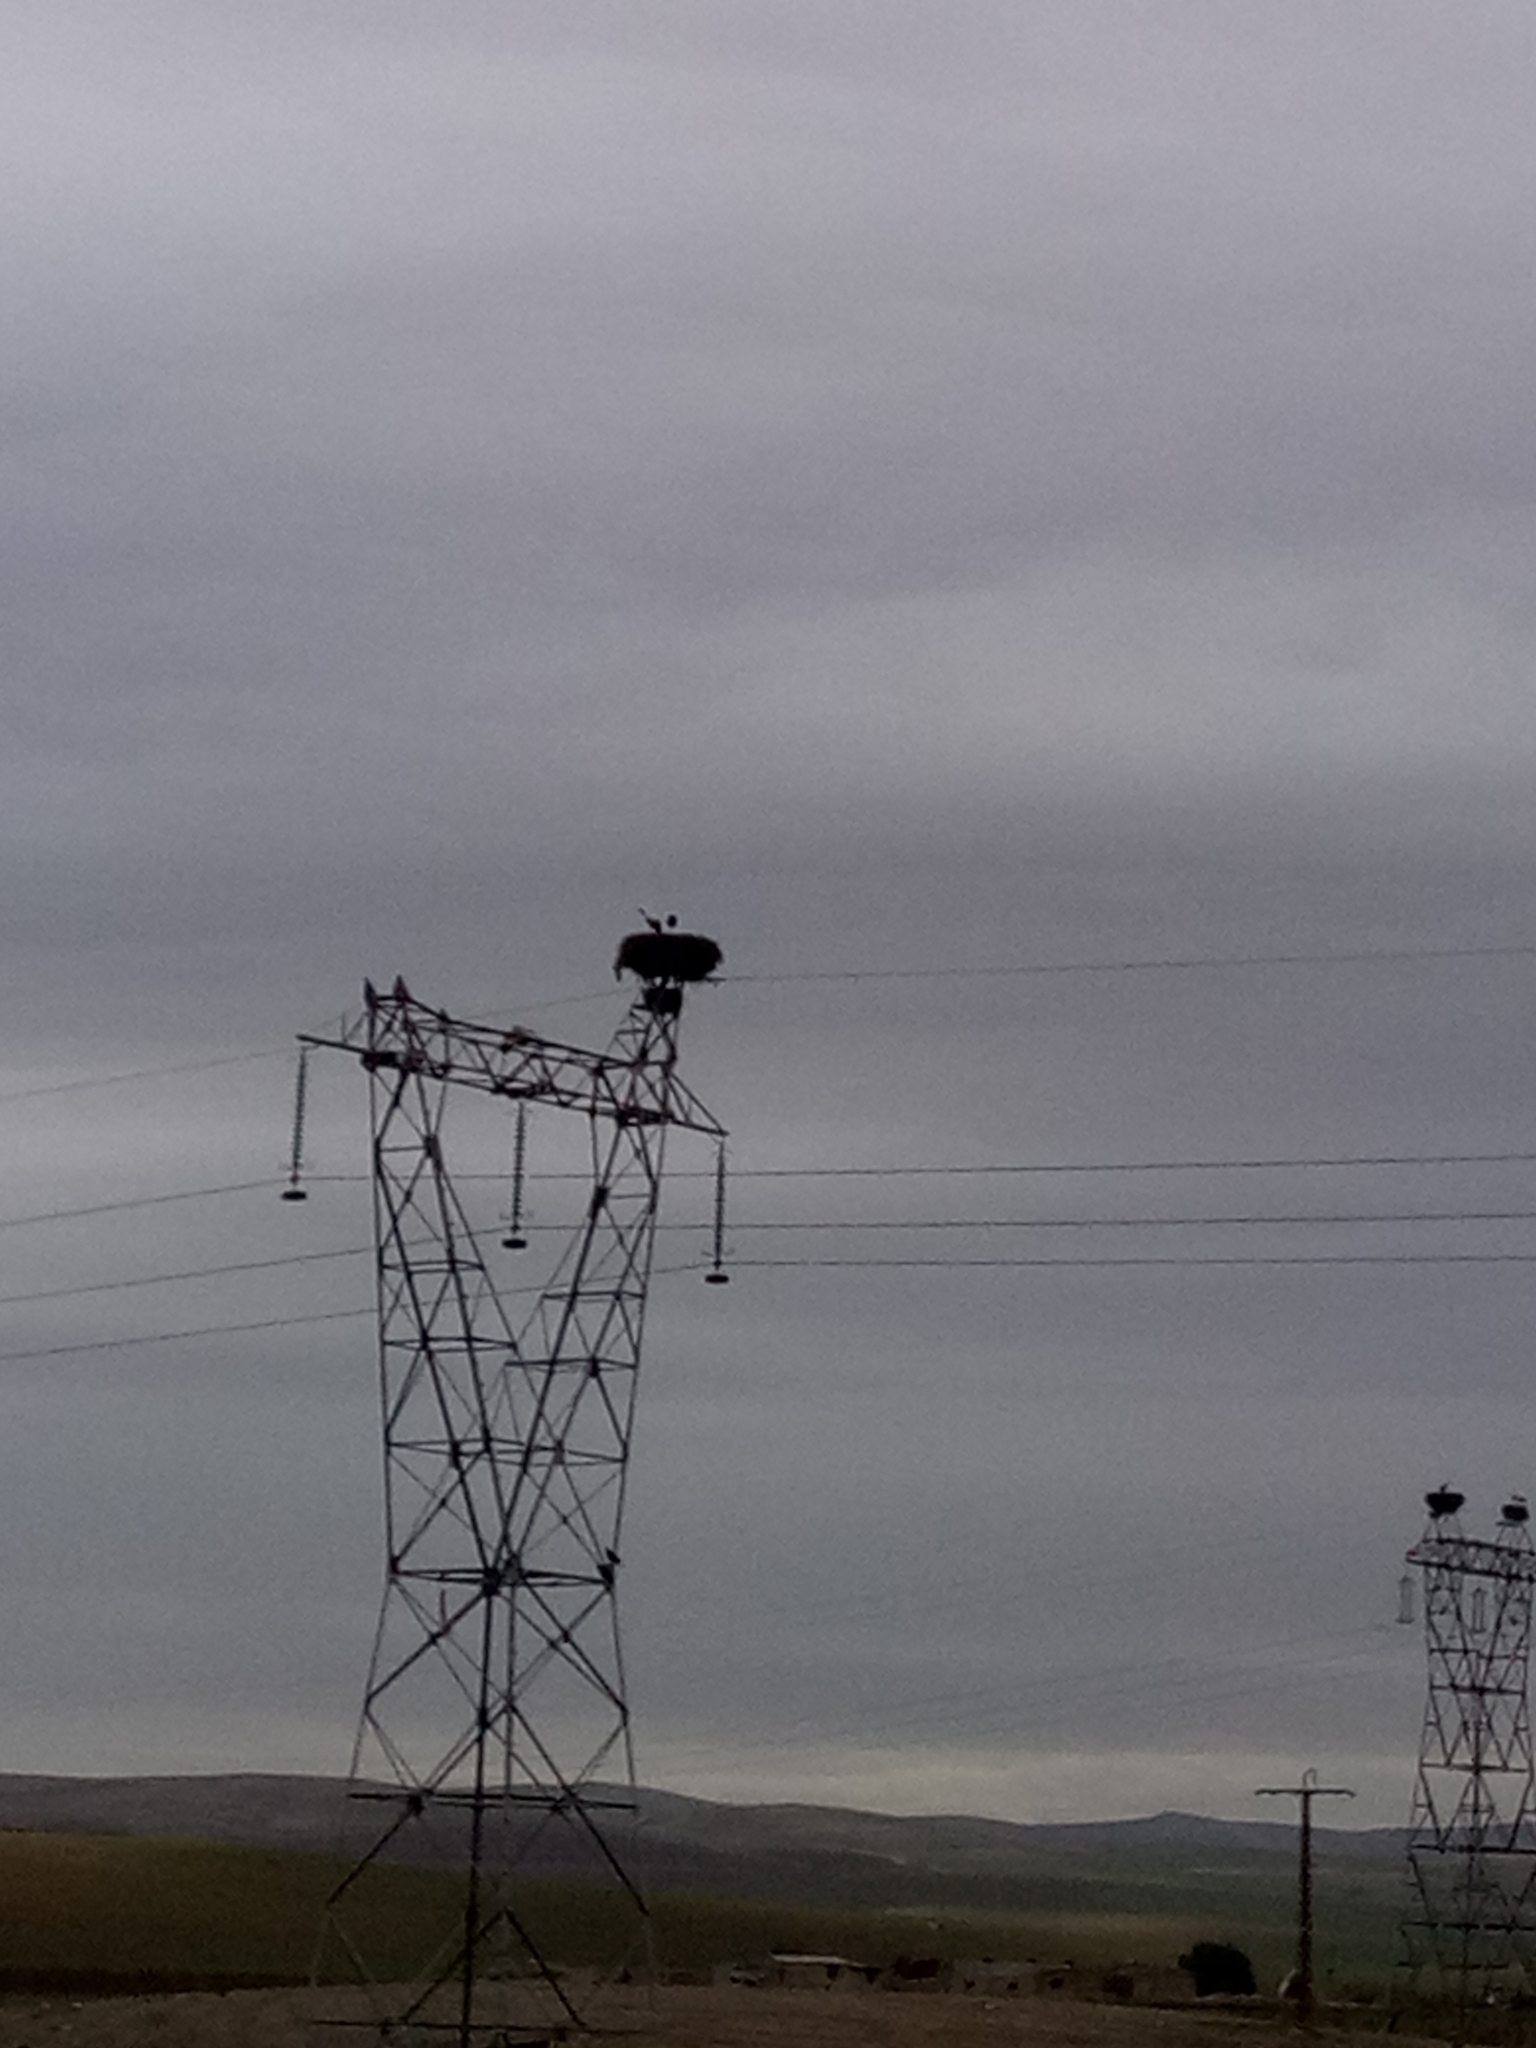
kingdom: Animalia
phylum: Chordata
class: Aves
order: Ciconiiformes
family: Ciconiidae
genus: Ciconia
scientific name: Ciconia ciconia
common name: White stork
